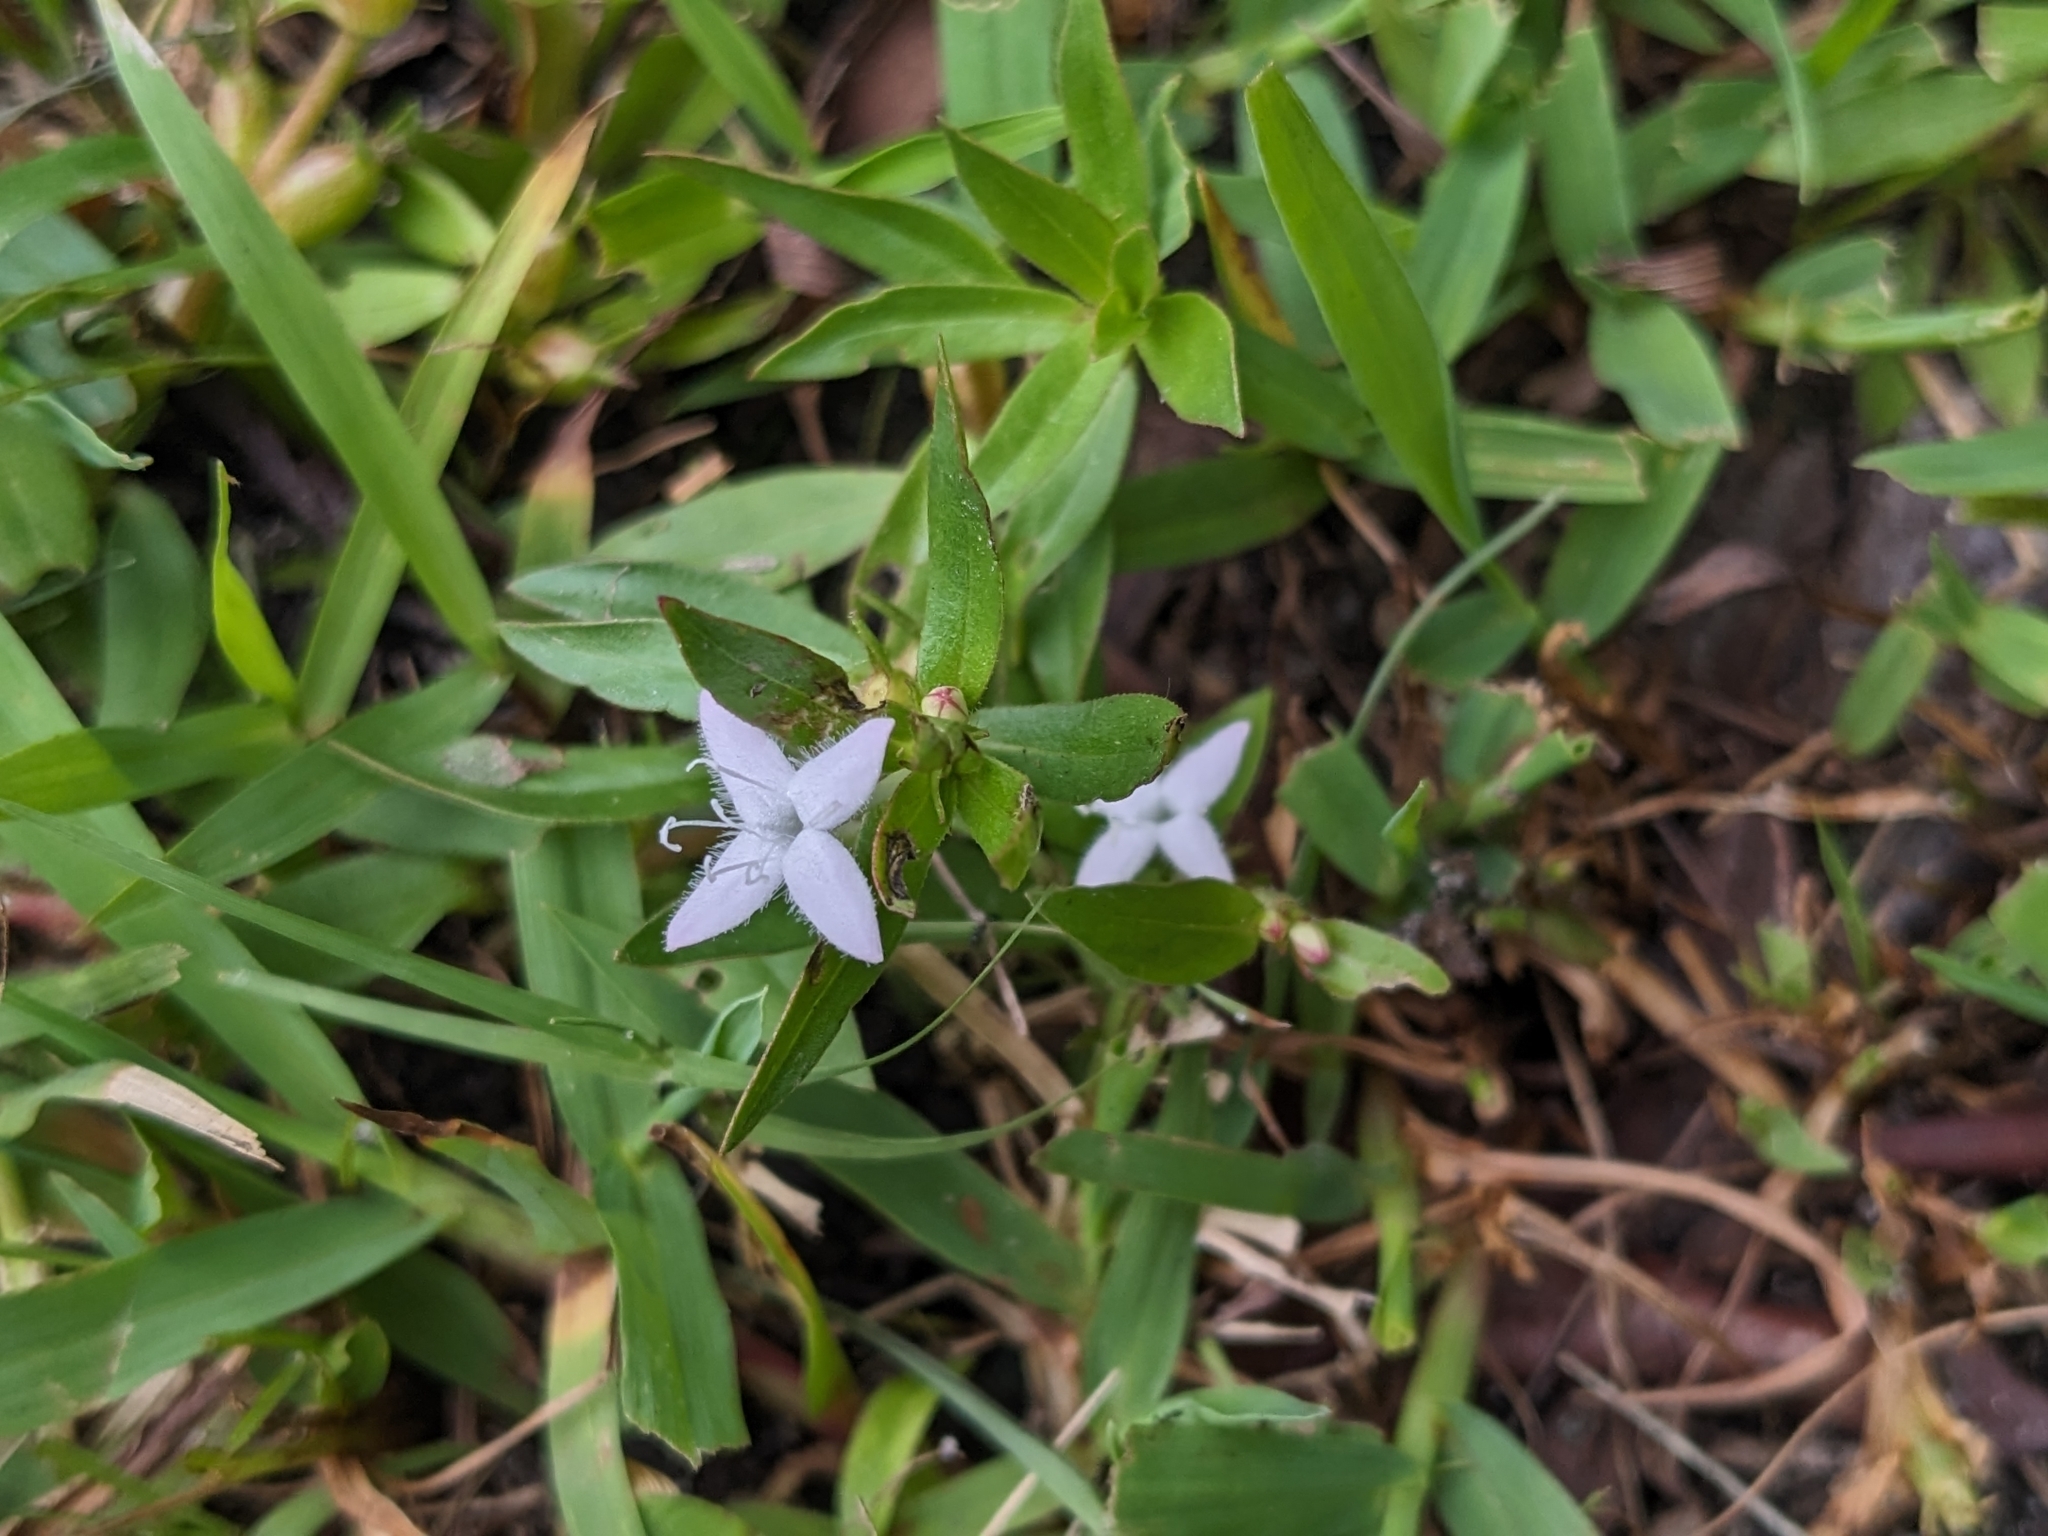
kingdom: Plantae
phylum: Tracheophyta
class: Magnoliopsida
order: Gentianales
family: Rubiaceae
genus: Diodia
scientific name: Diodia virginiana
